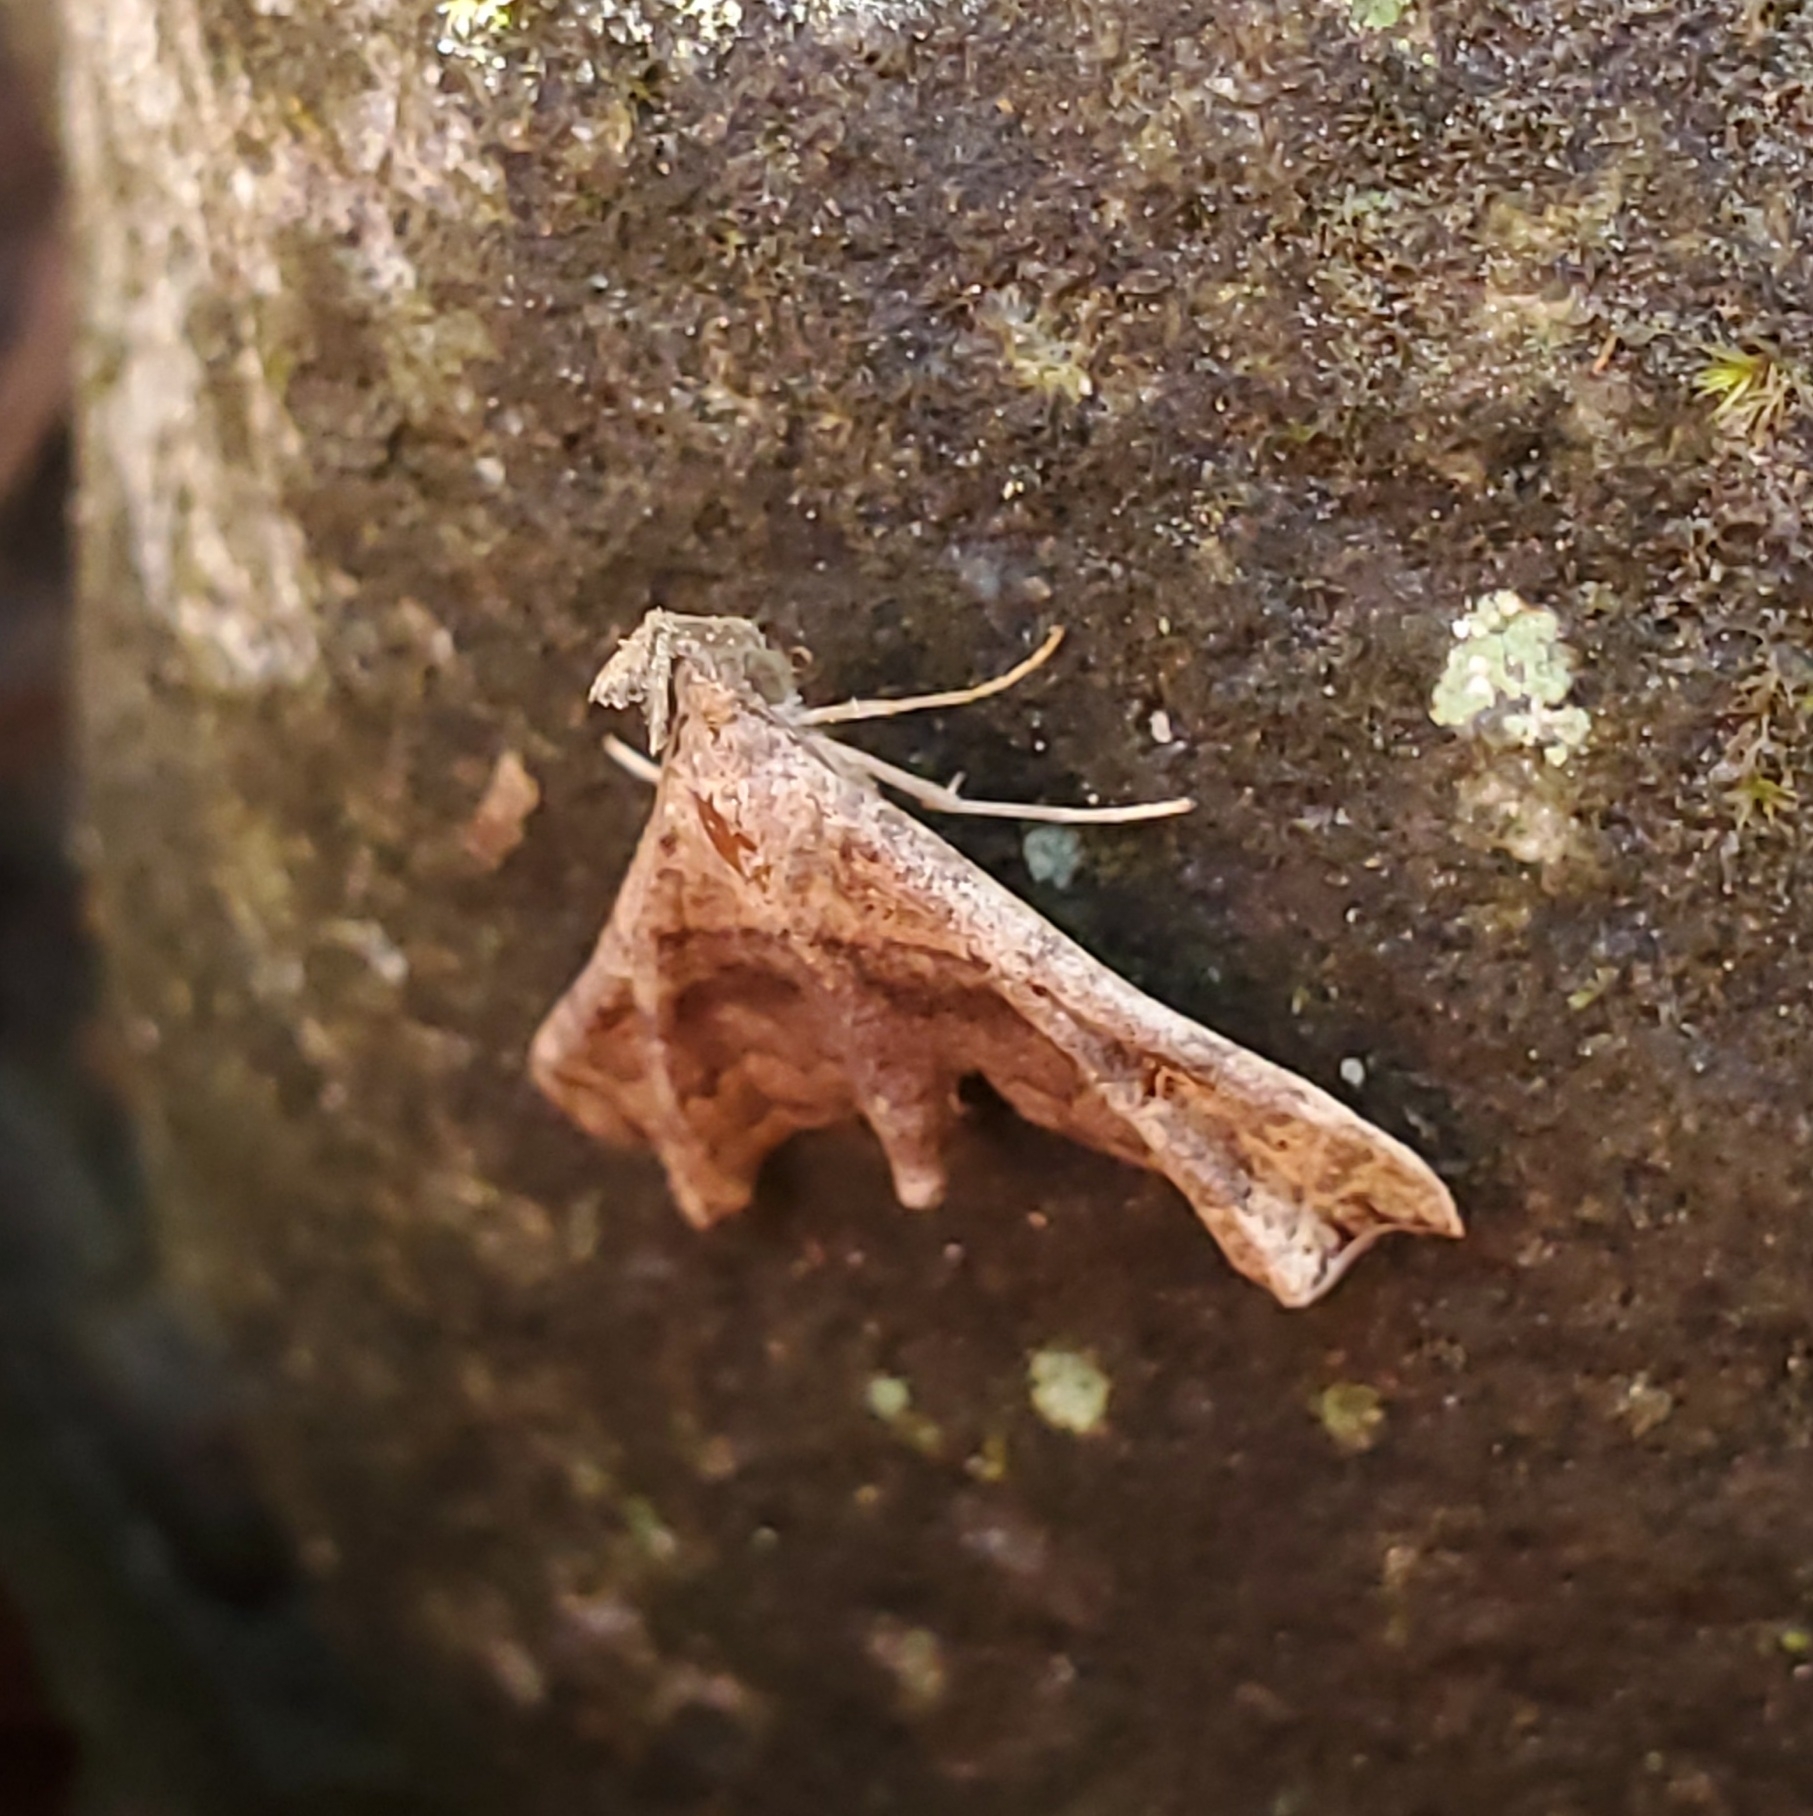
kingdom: Animalia
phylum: Arthropoda
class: Insecta
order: Lepidoptera
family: Erebidae
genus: Palthis
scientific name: Palthis asopialis
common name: Faint-spotted palthis moth
